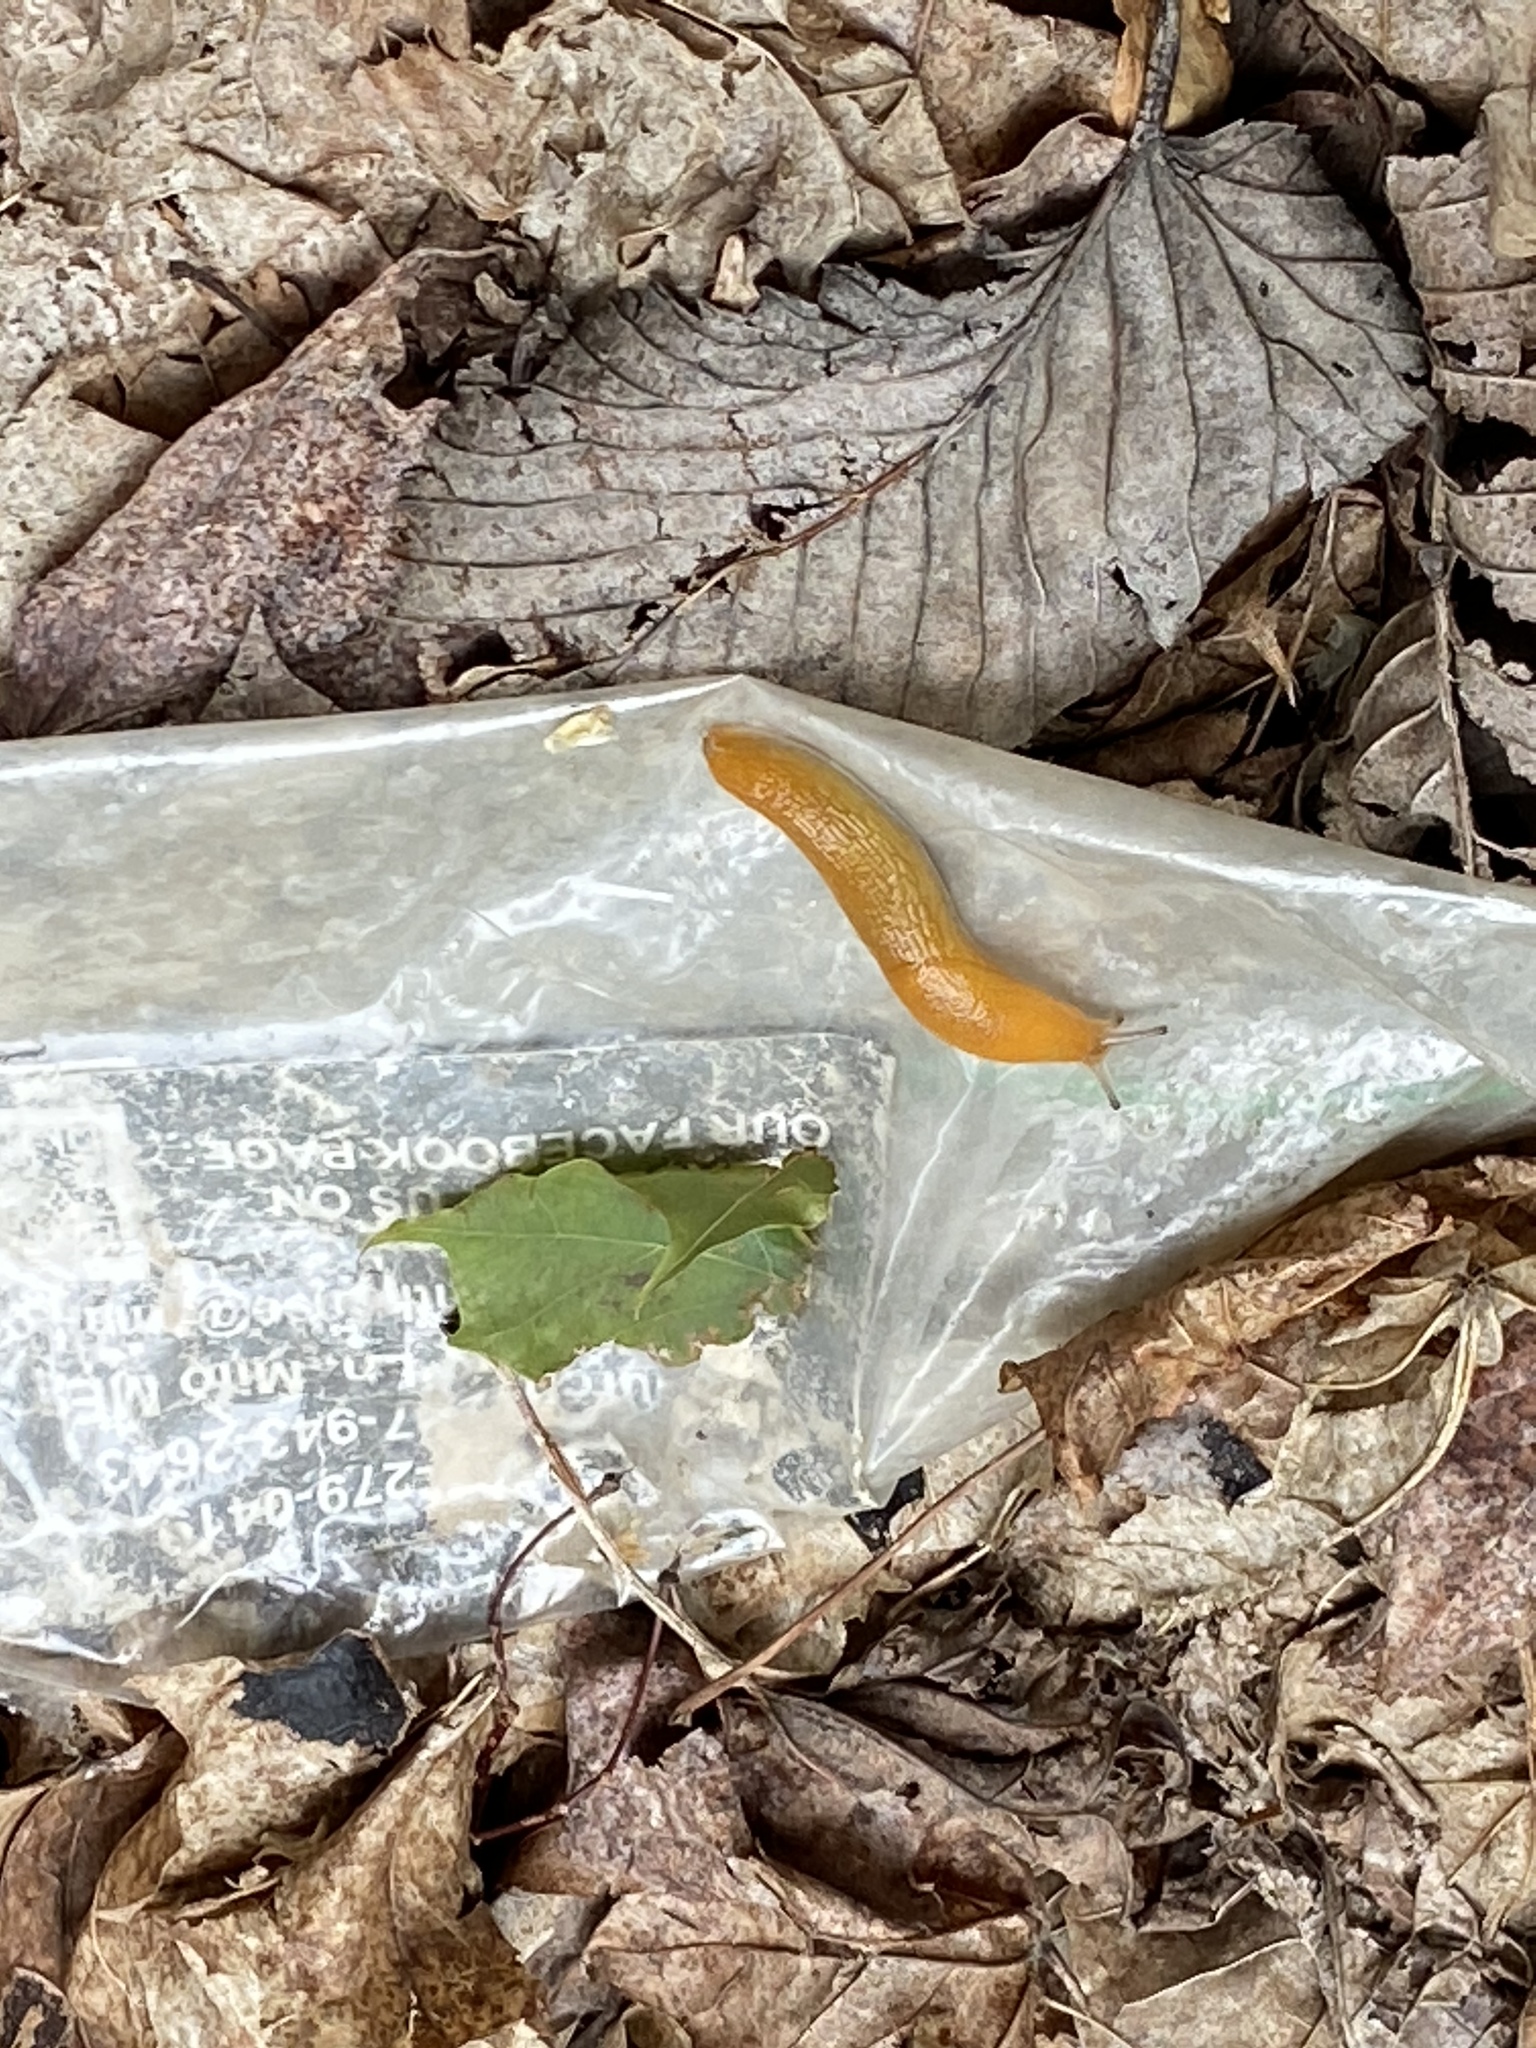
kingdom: Animalia
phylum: Mollusca
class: Gastropoda
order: Stylommatophora
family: Arionidae
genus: Arion
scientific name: Arion subfuscus
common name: Dusky arion
